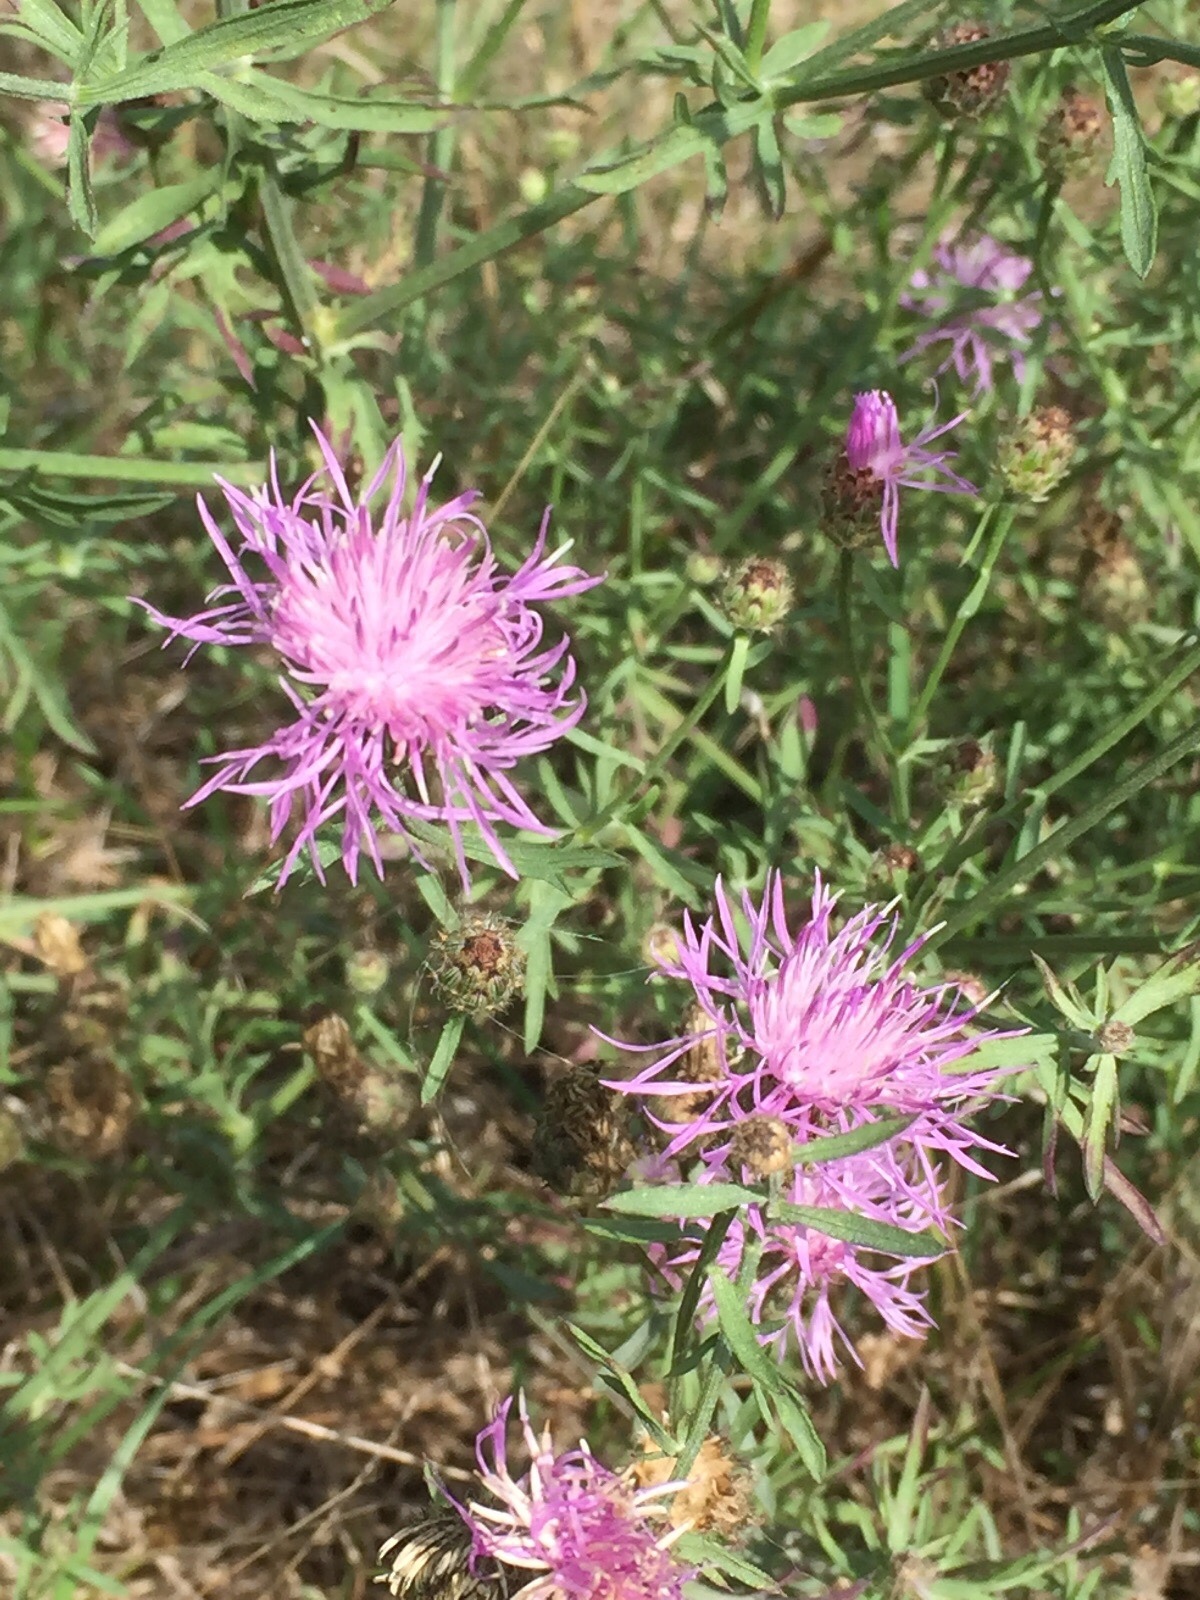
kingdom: Plantae
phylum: Tracheophyta
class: Magnoliopsida
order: Asterales
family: Asteraceae
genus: Centaurea
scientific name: Centaurea stoebe
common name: Spotted knapweed
